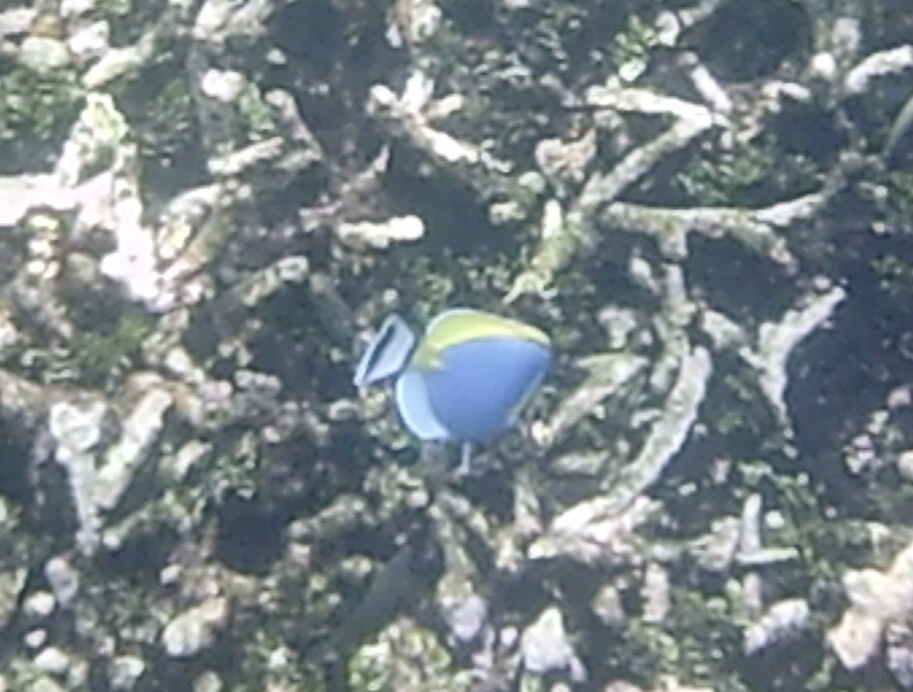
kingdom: Animalia
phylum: Chordata
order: Perciformes
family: Acanthuridae
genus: Acanthurus
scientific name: Acanthurus leucosternon
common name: Blue surgeonfish
